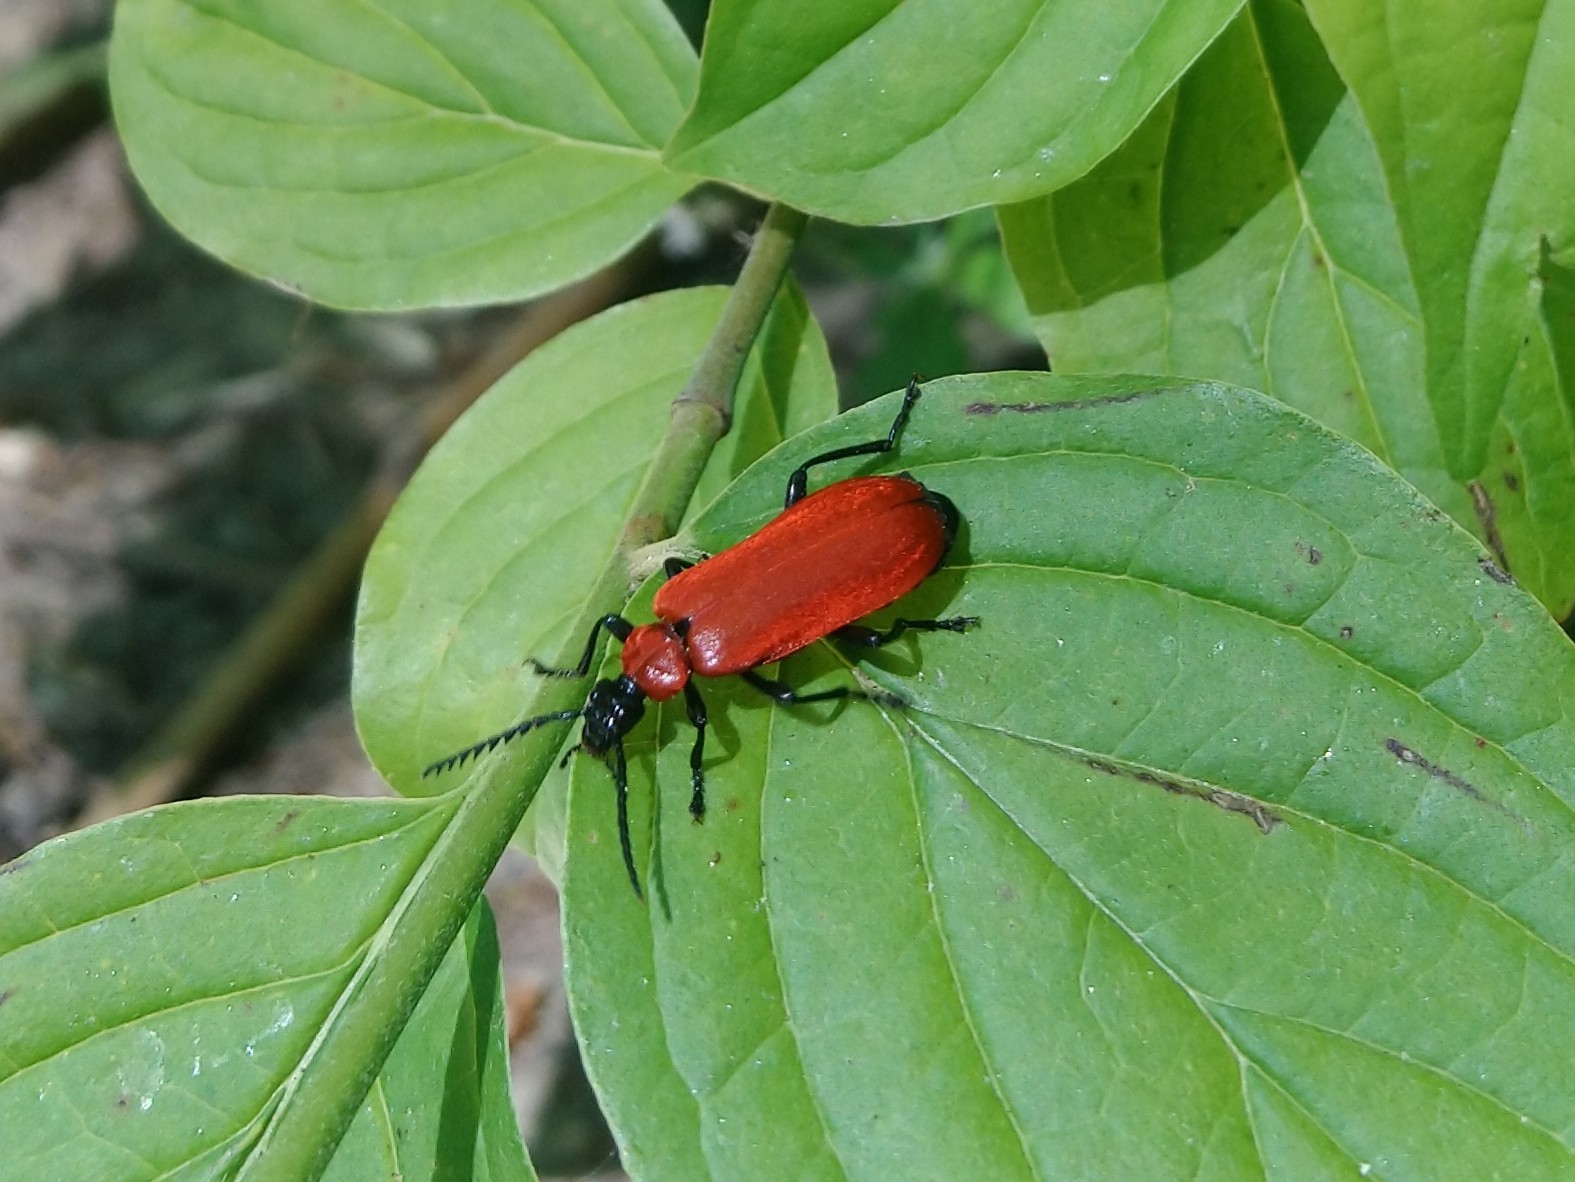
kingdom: Animalia
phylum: Arthropoda
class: Insecta
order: Coleoptera
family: Pyrochroidae
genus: Pyrochroa
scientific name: Pyrochroa coccinea
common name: Black-headed cardinal beetle
